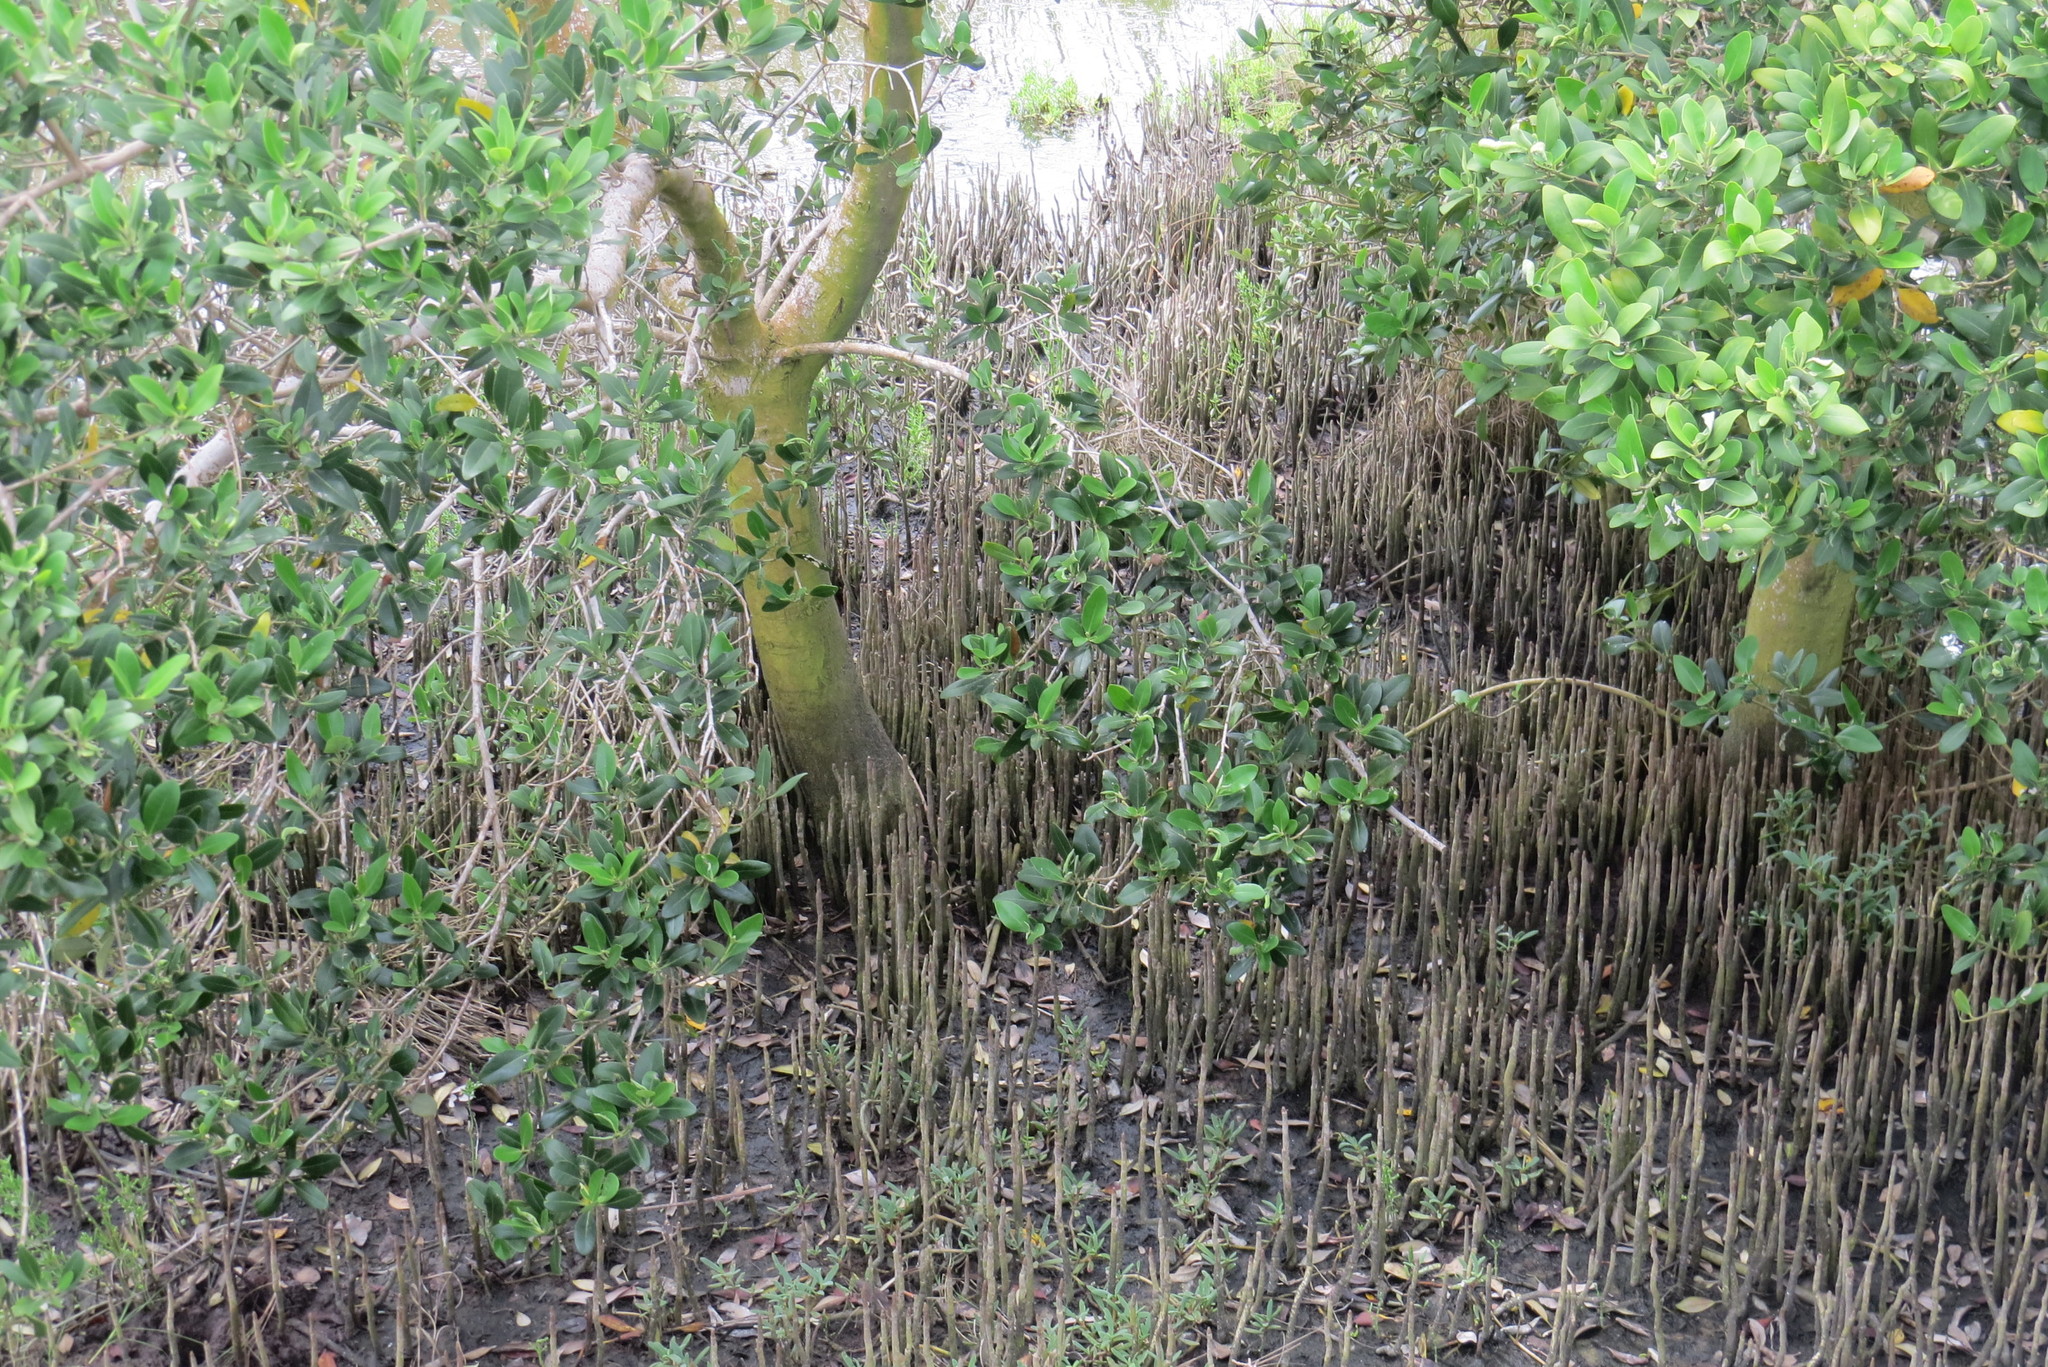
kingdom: Plantae
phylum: Tracheophyta
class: Magnoliopsida
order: Lamiales
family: Acanthaceae
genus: Avicennia
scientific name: Avicennia germinans
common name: Black mangrove
